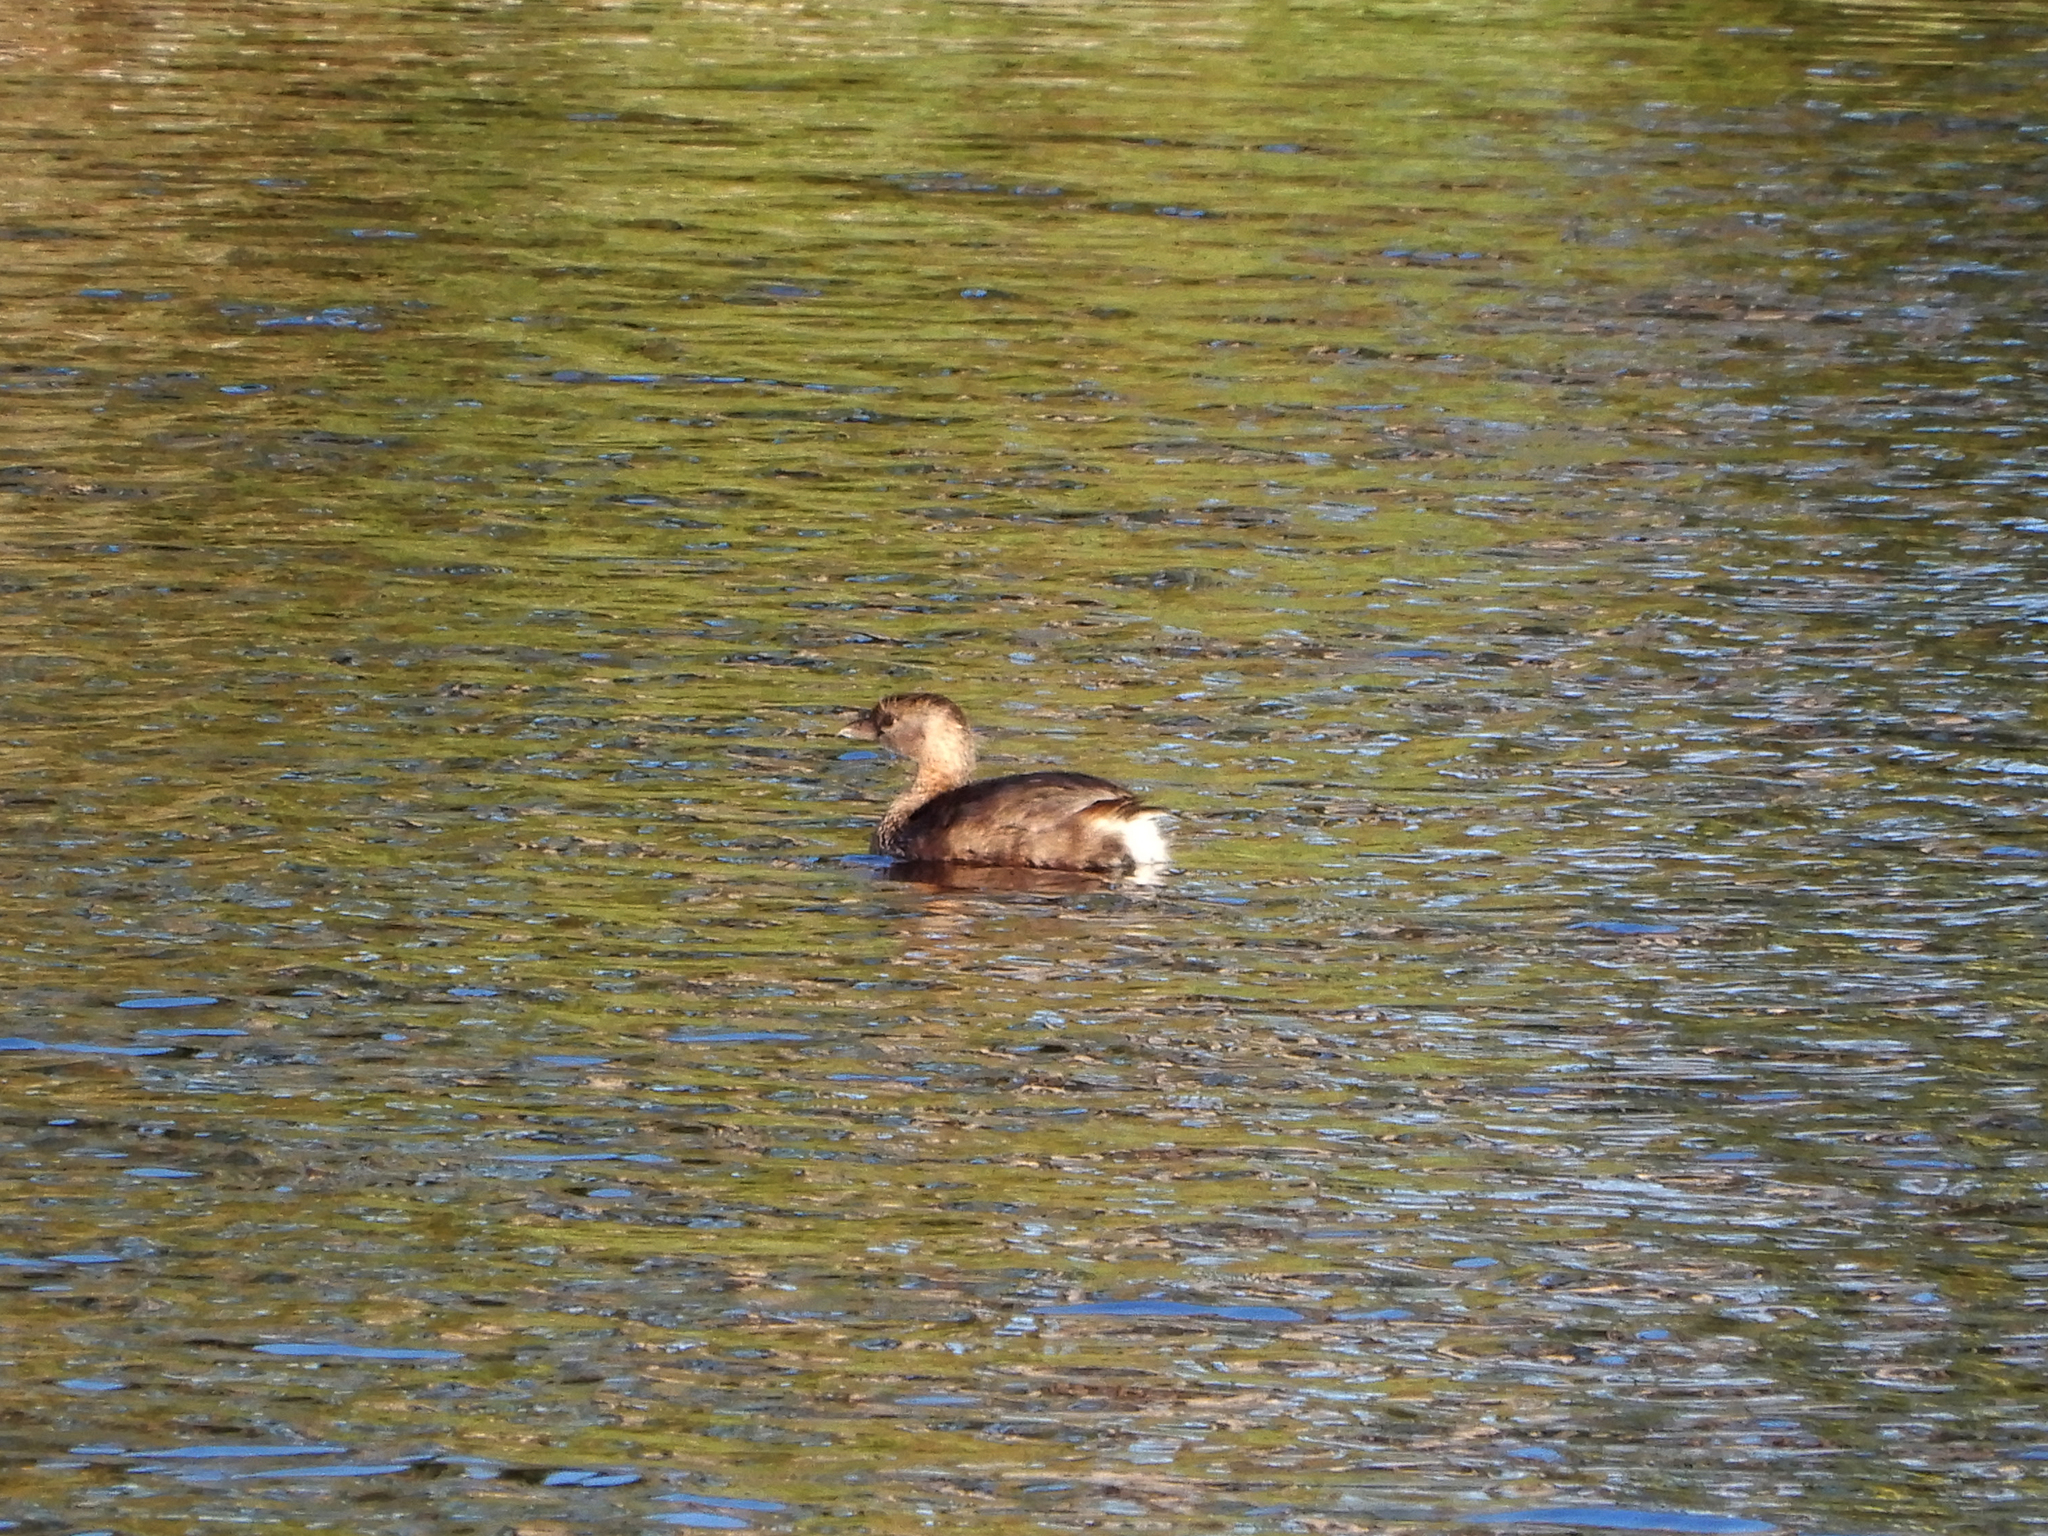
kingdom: Animalia
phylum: Chordata
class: Aves
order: Podicipediformes
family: Podicipedidae
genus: Podilymbus
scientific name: Podilymbus podiceps
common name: Pied-billed grebe
